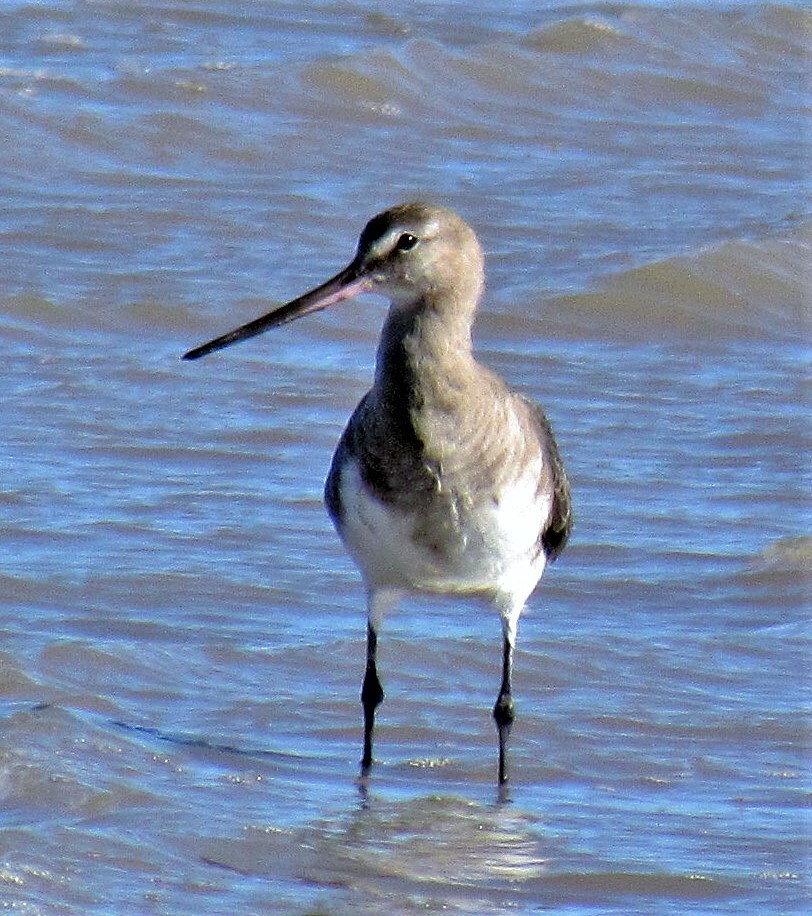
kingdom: Animalia
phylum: Chordata
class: Aves
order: Charadriiformes
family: Scolopacidae
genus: Limosa
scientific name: Limosa haemastica
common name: Hudsonian godwit
